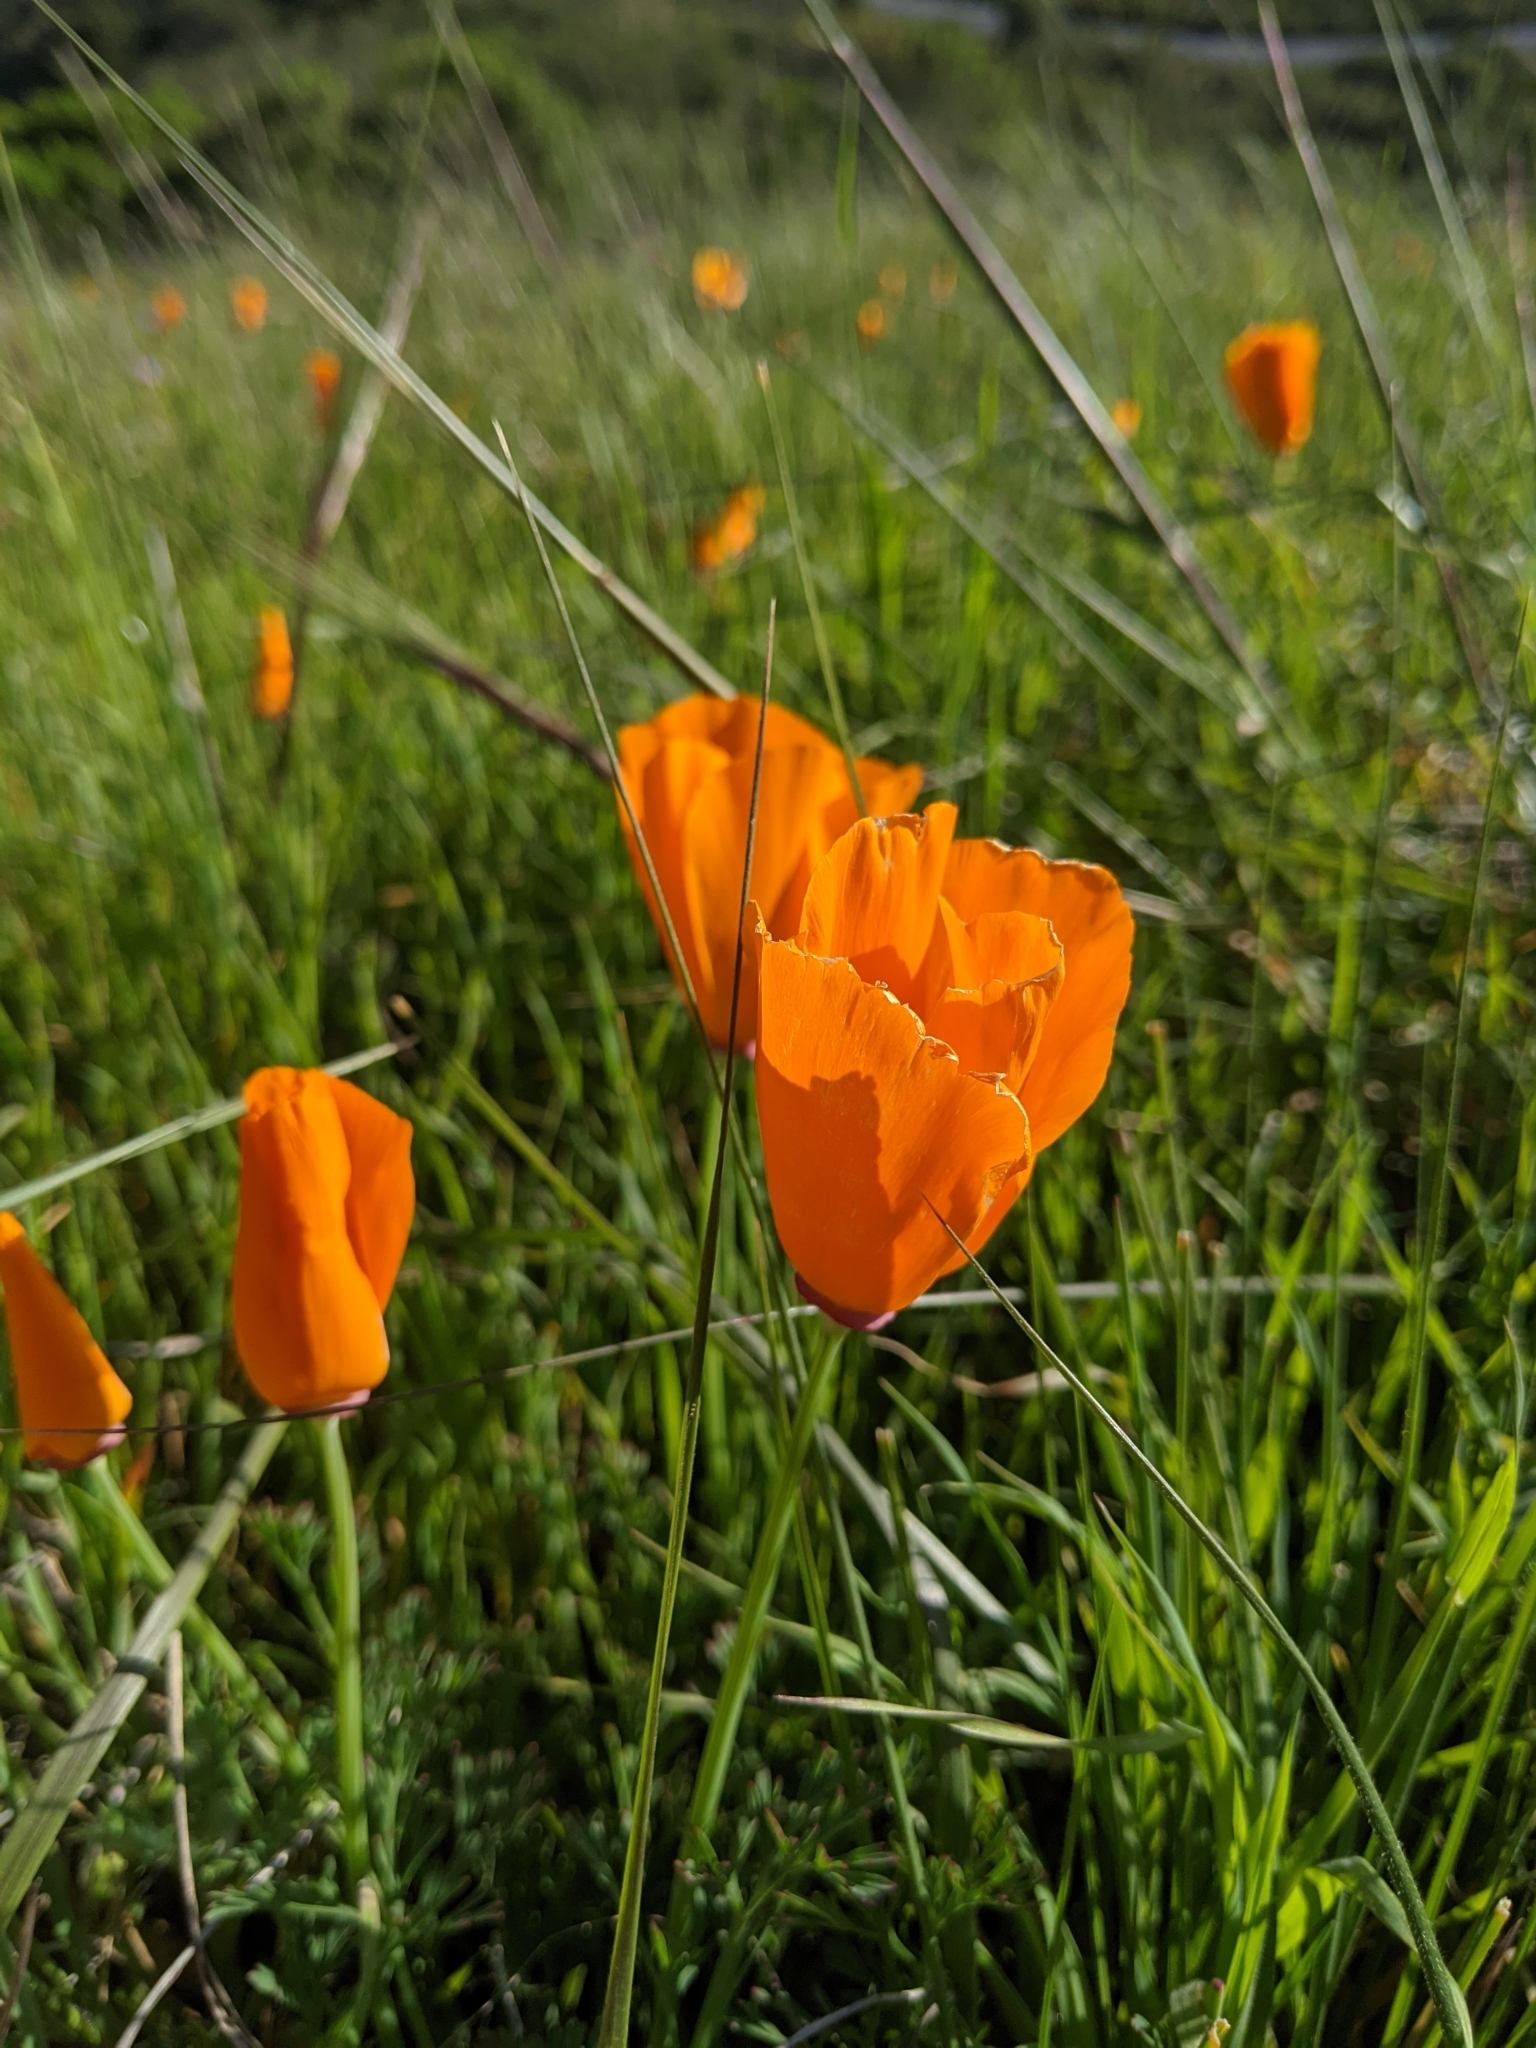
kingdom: Plantae
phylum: Tracheophyta
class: Magnoliopsida
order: Ranunculales
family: Papaveraceae
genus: Eschscholzia
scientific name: Eschscholzia californica
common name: California poppy
